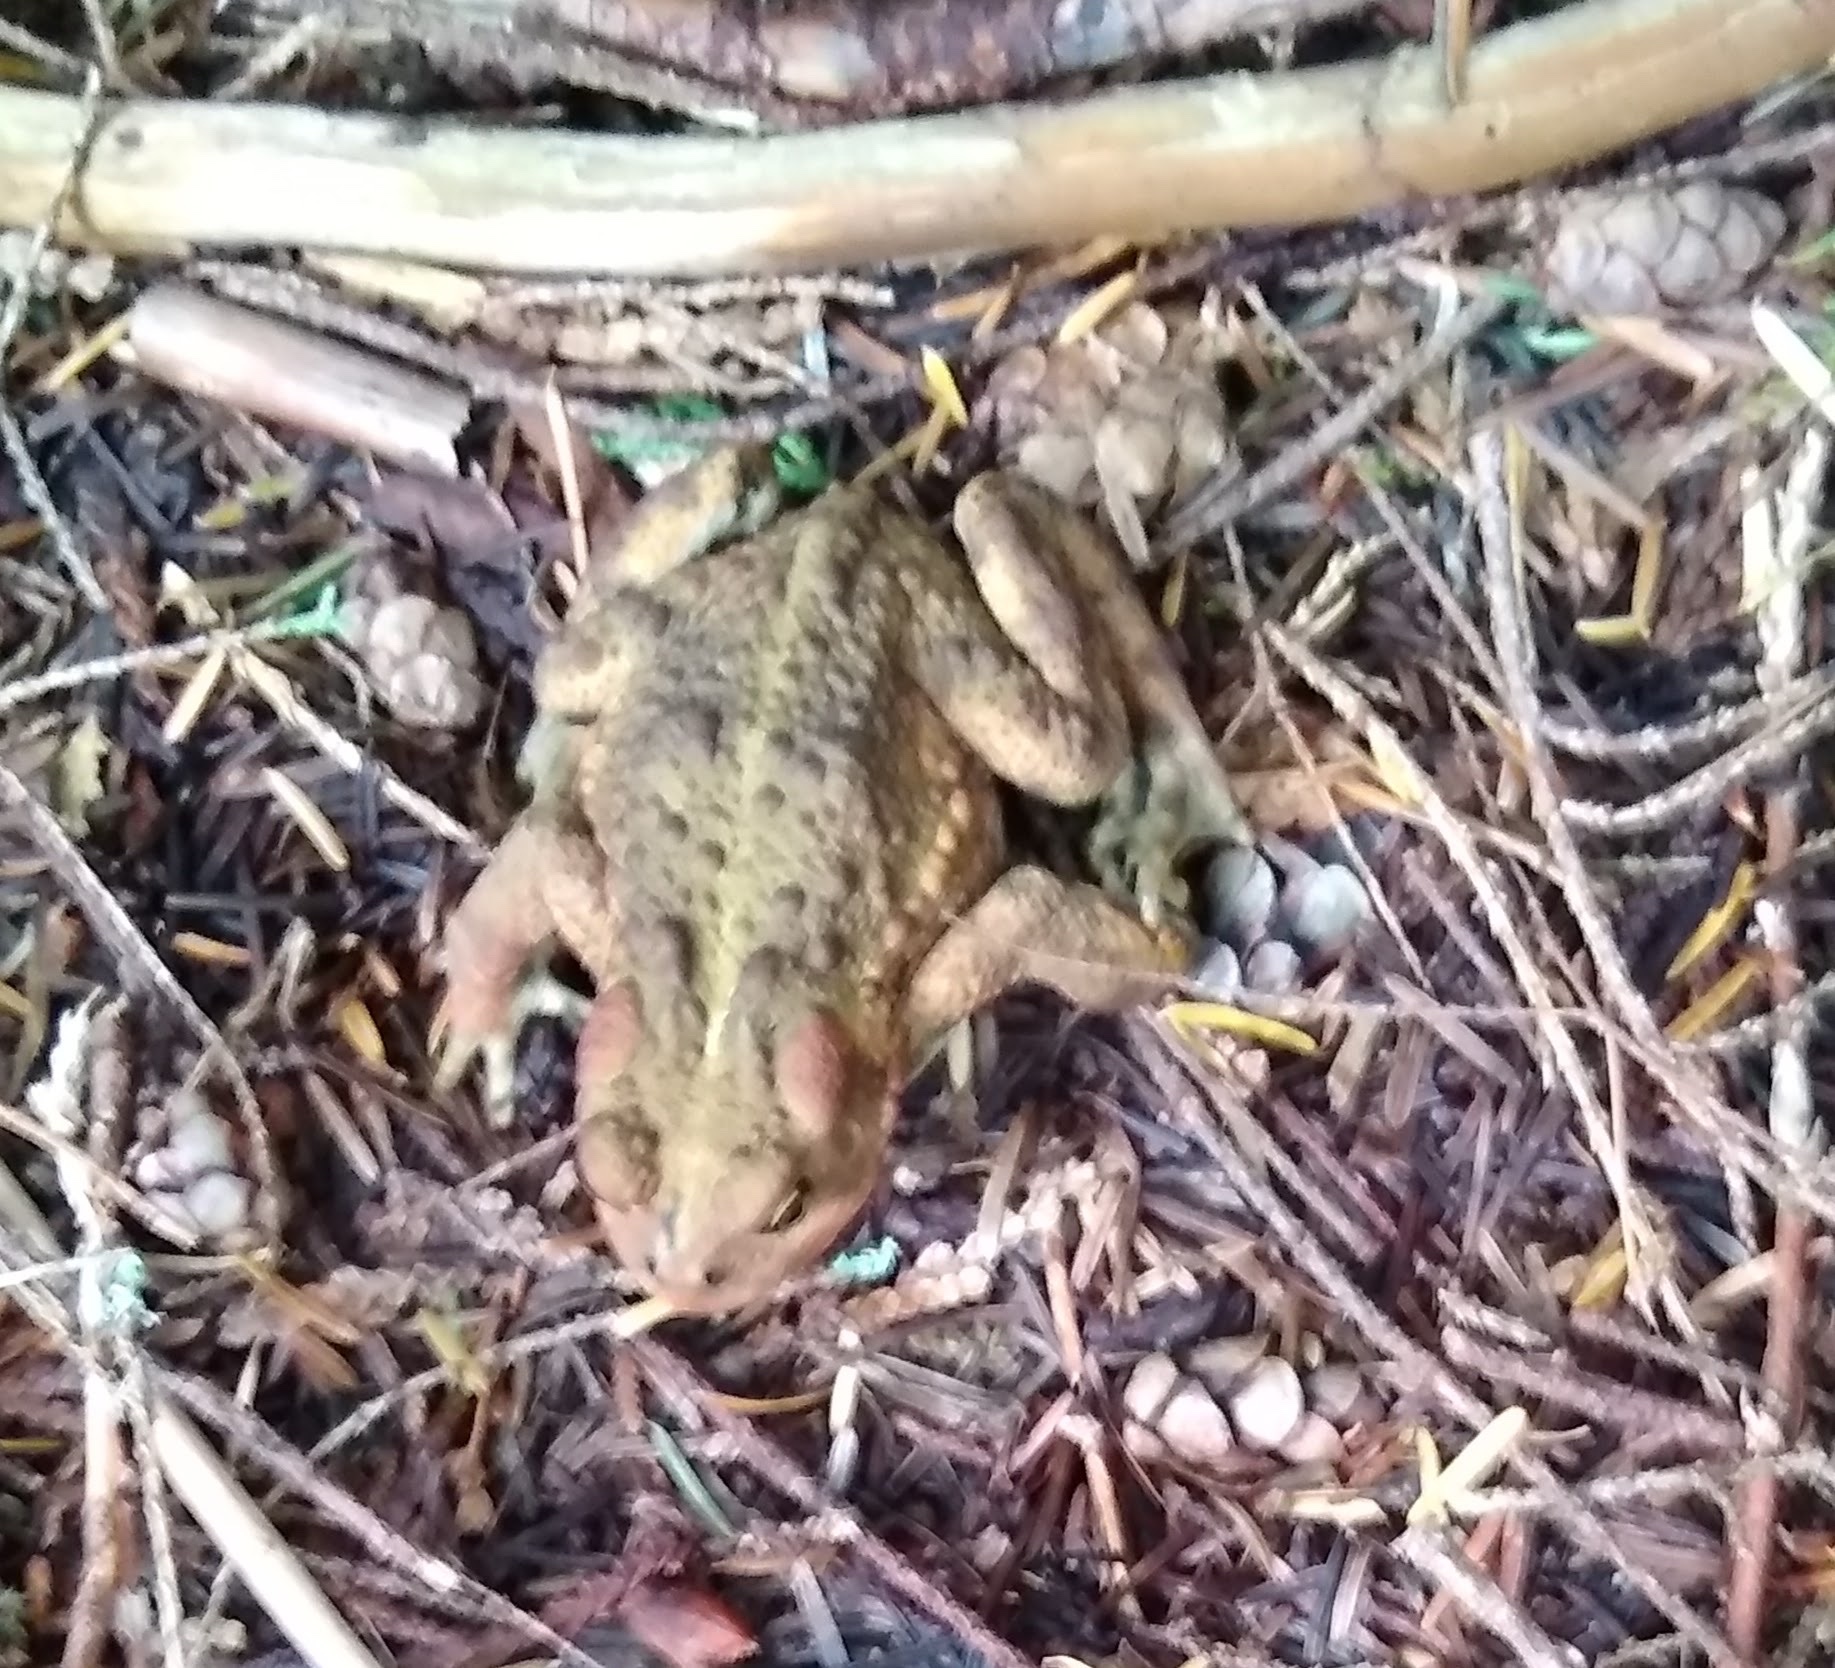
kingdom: Animalia
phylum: Chordata
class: Amphibia
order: Anura
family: Bufonidae
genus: Anaxyrus
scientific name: Anaxyrus boreas
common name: Western toad
